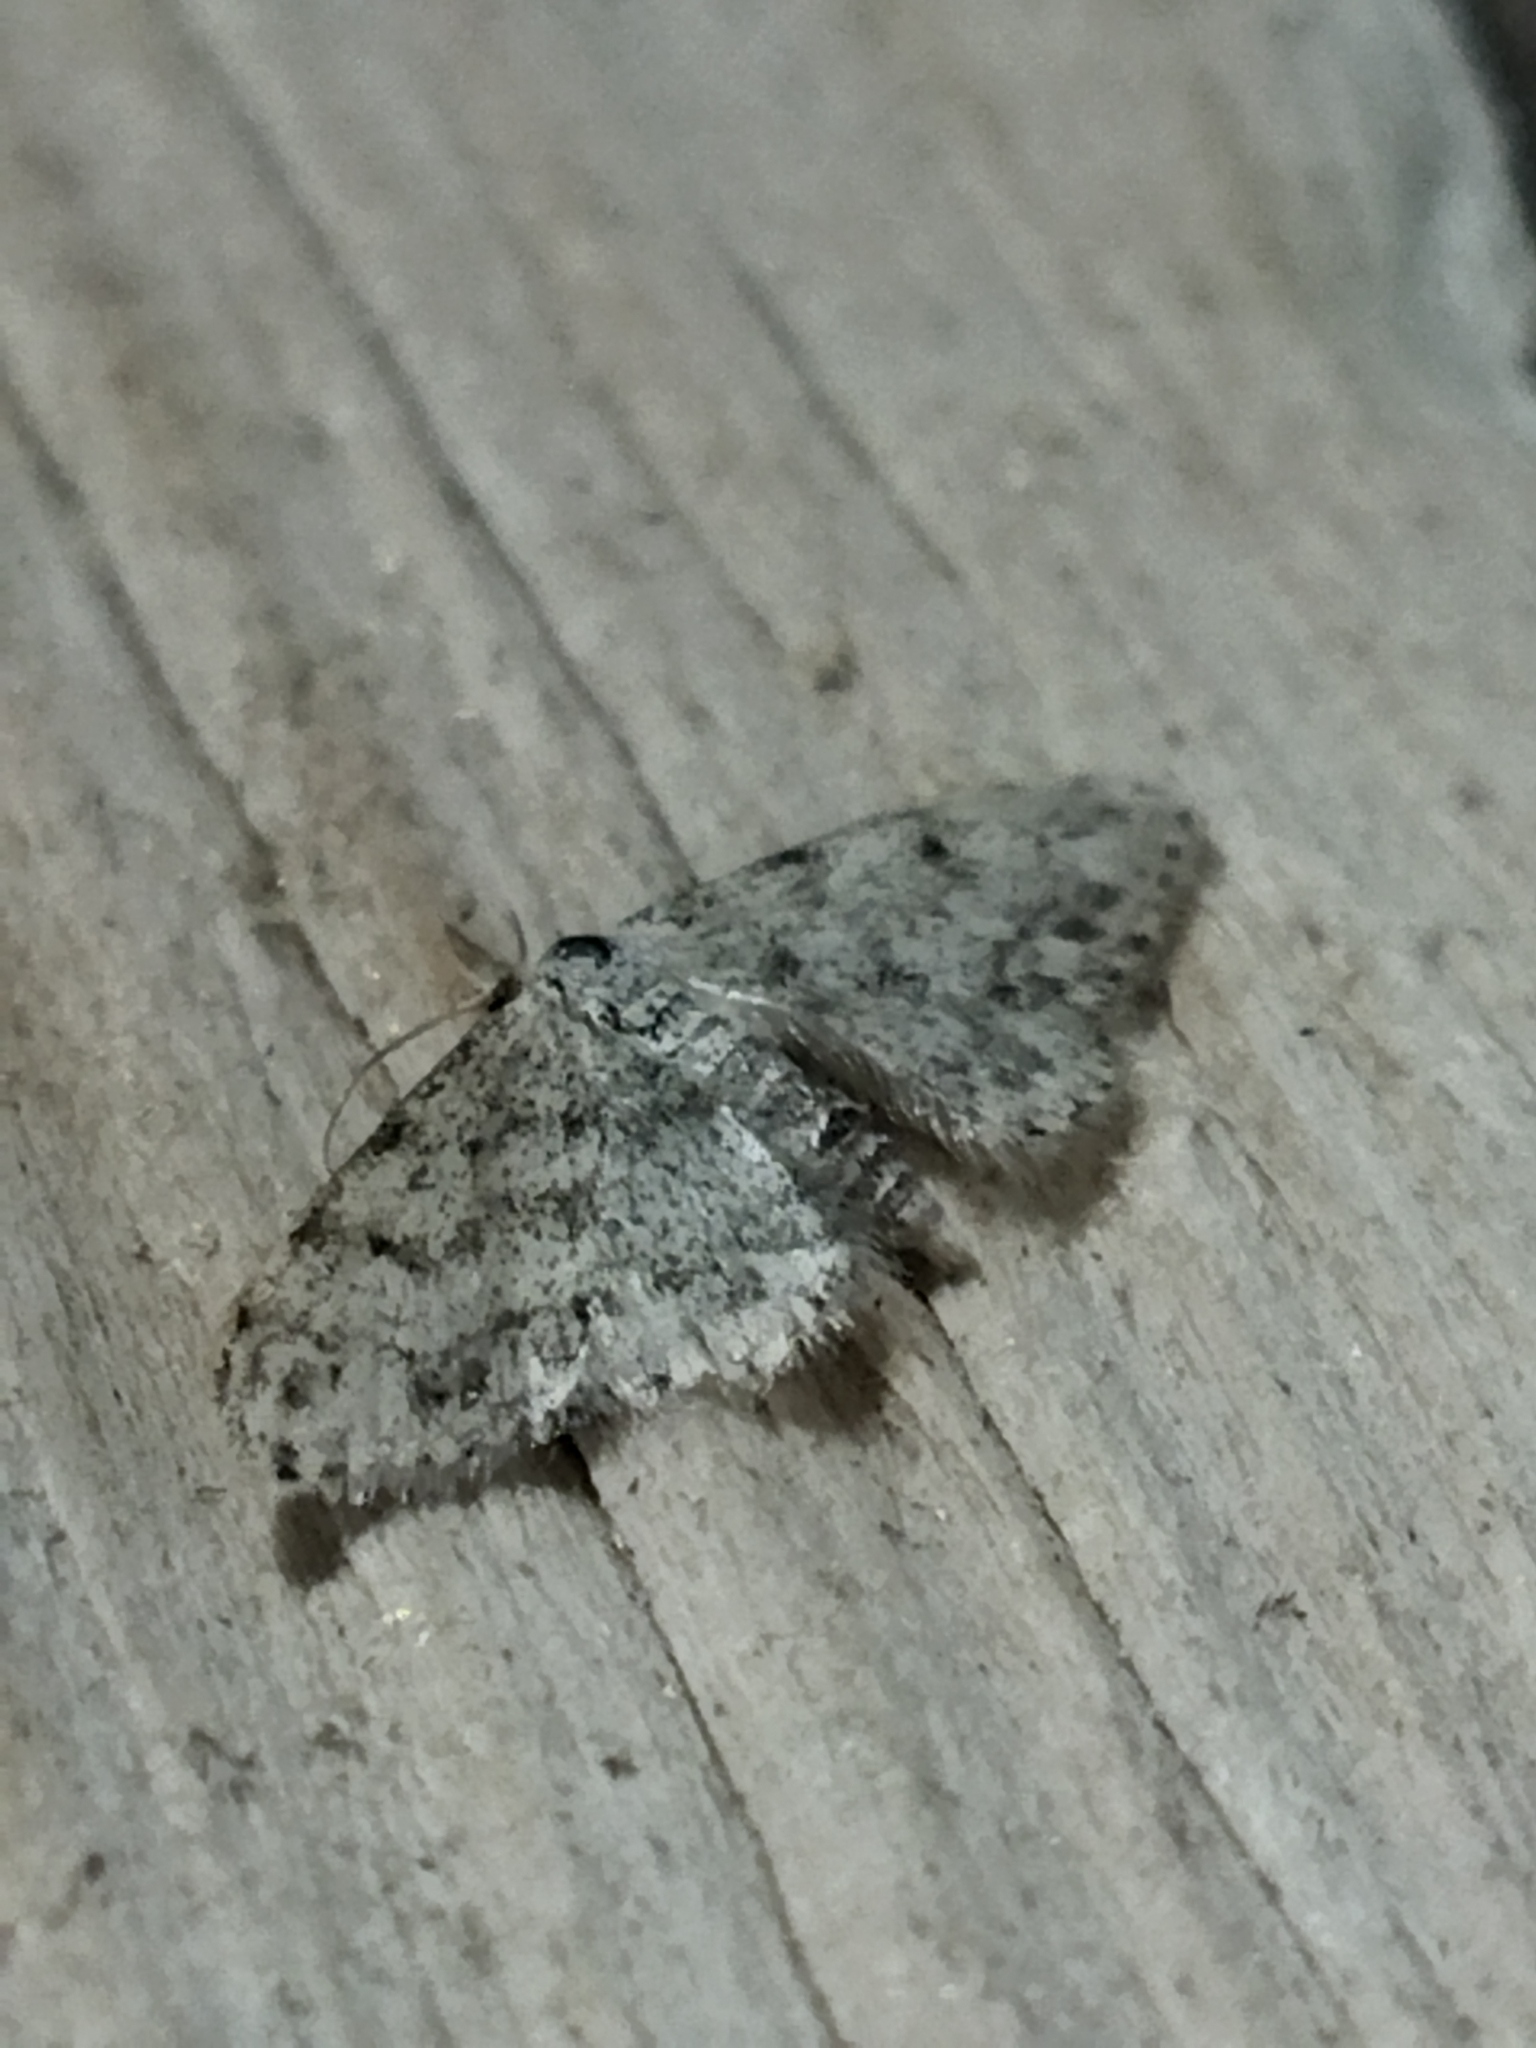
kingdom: Animalia
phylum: Arthropoda
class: Insecta
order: Lepidoptera
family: Geometridae
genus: Idaea
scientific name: Idaea camparia
